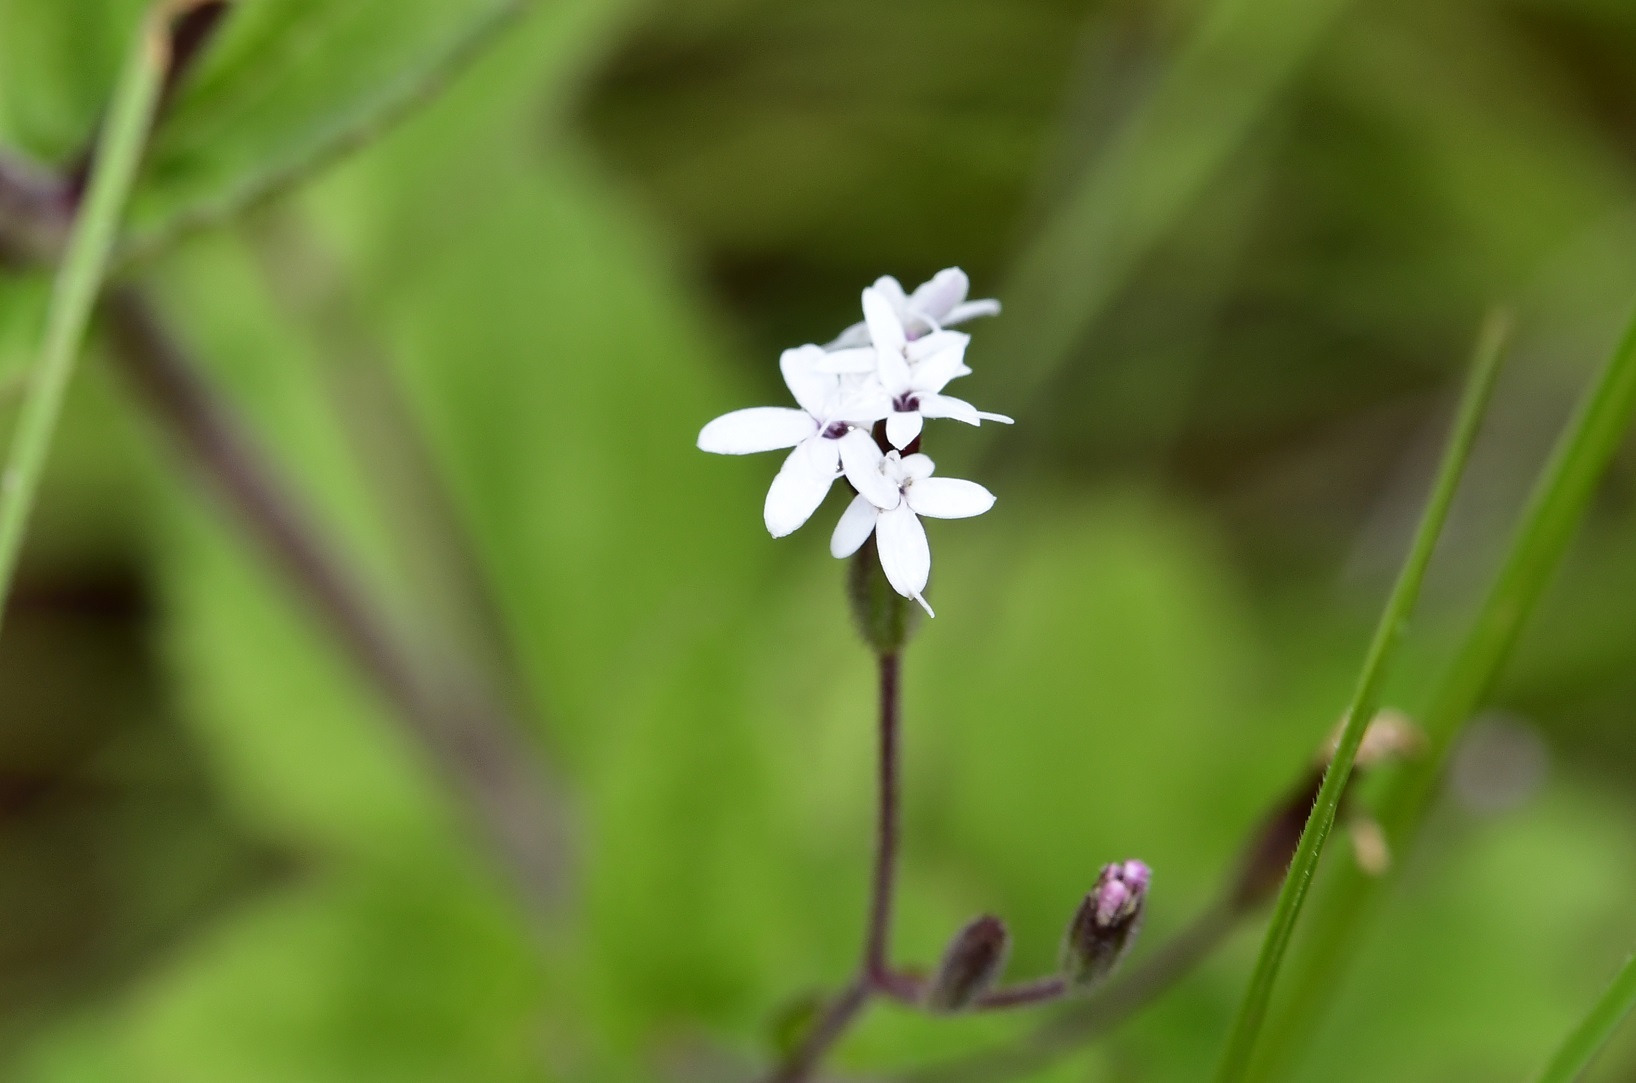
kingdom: Plantae
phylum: Tracheophyta
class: Magnoliopsida
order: Asterales
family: Asteraceae
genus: Stevia
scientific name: Stevia elatior
